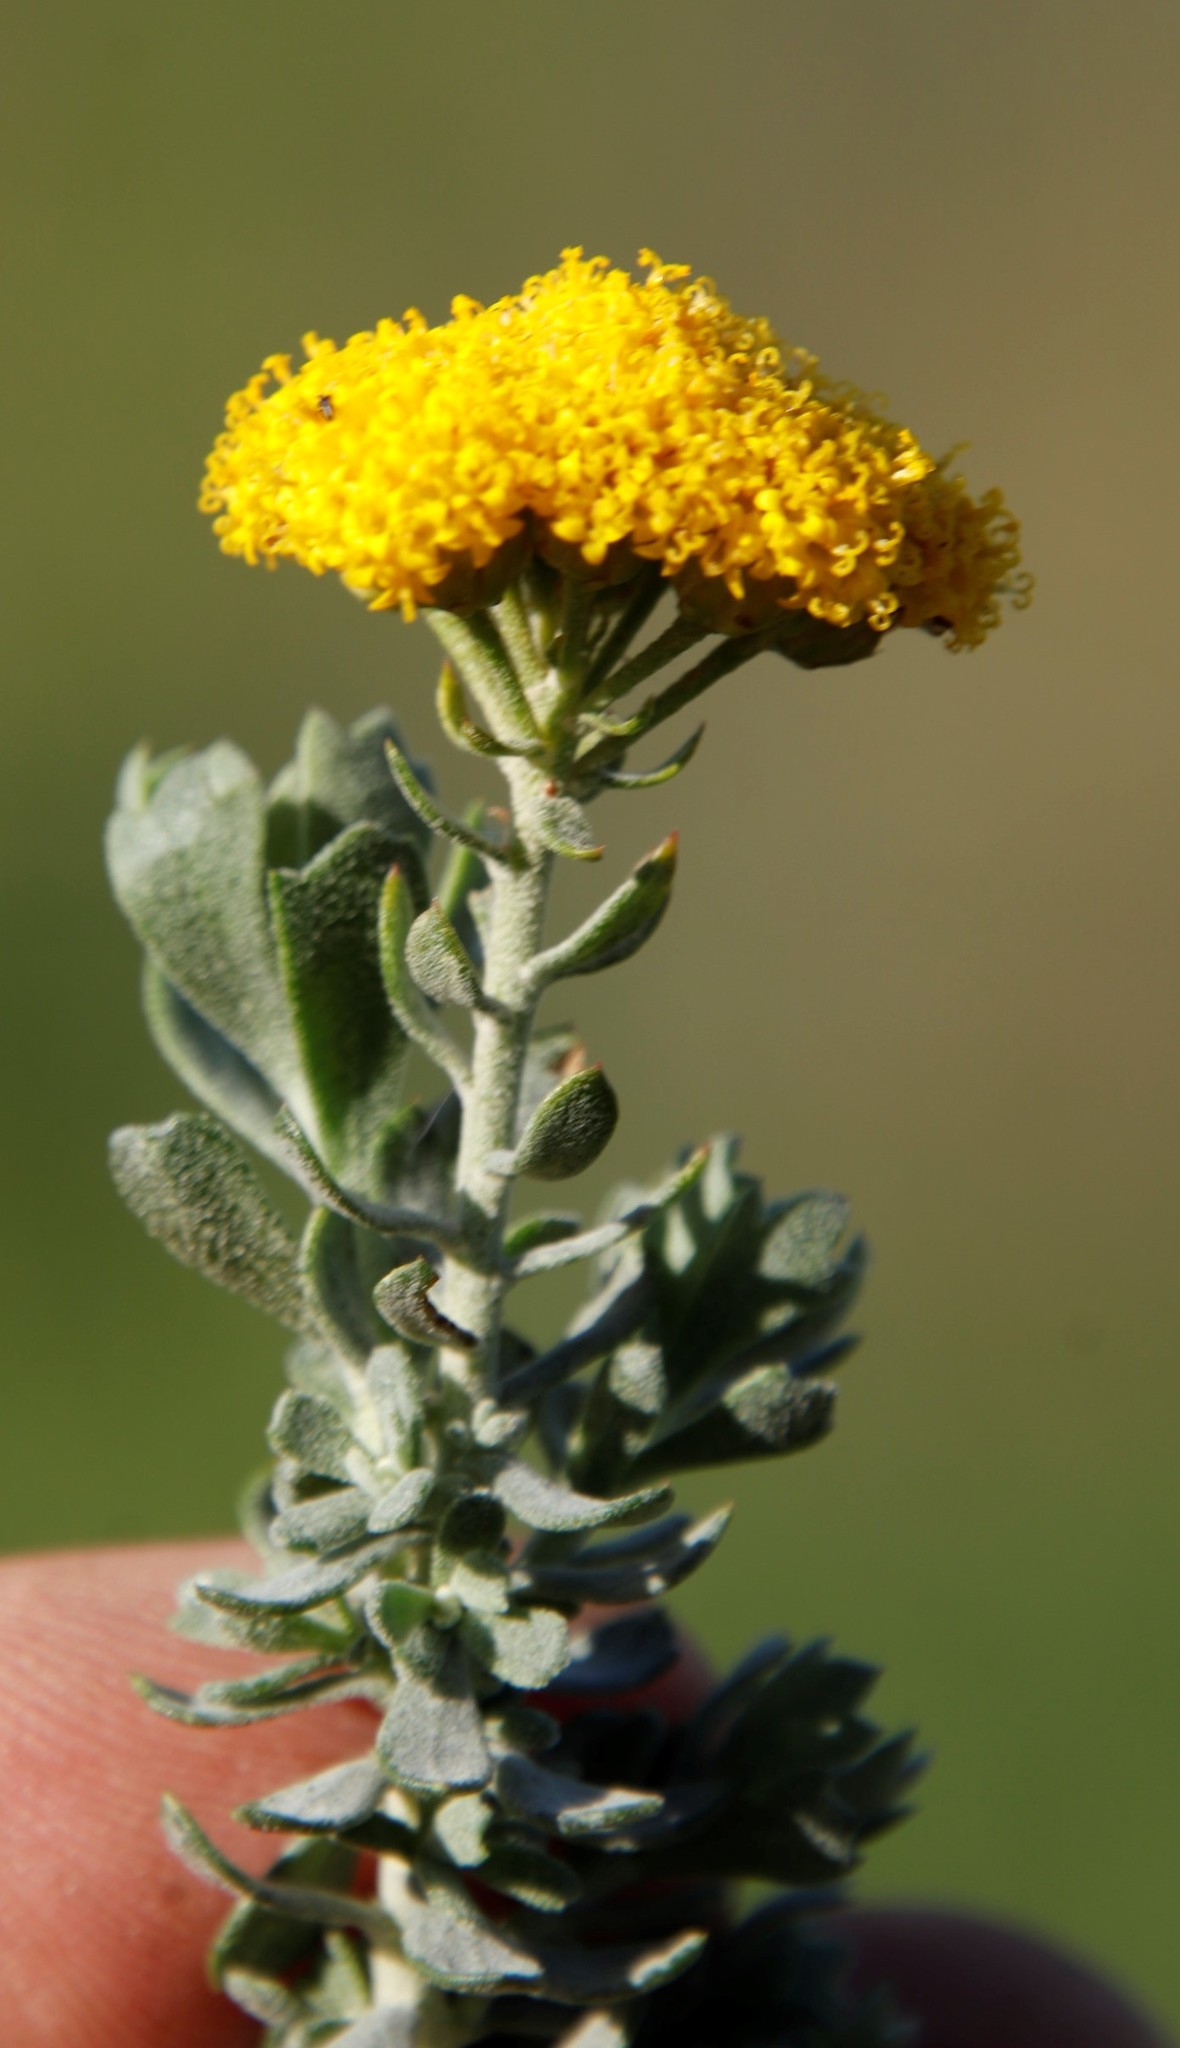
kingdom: Plantae
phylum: Tracheophyta
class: Magnoliopsida
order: Asterales
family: Asteraceae
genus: Athanasia
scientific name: Athanasia trifurcata
